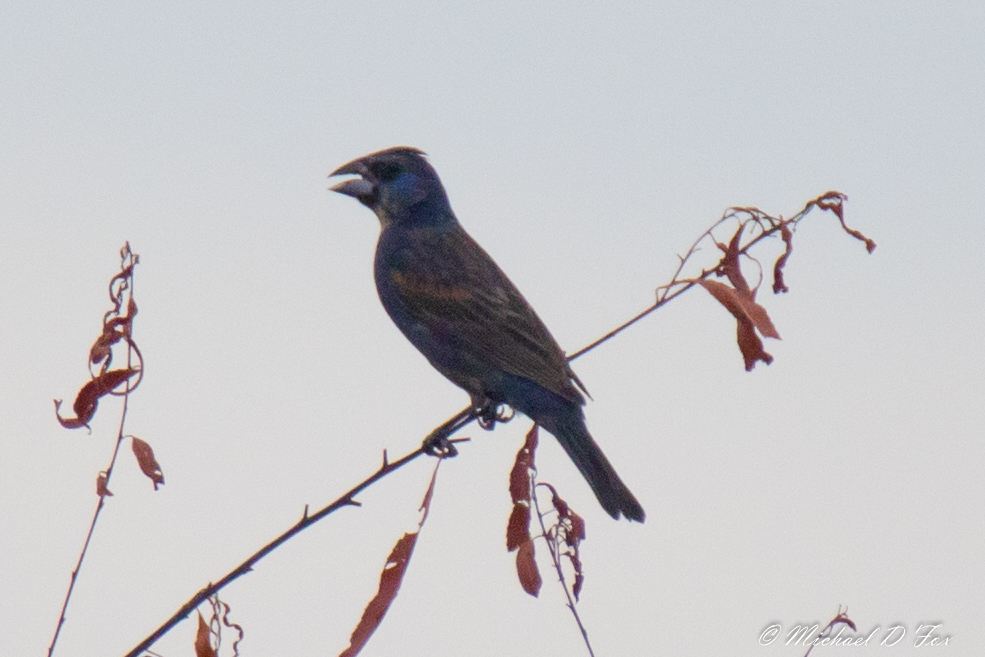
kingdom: Animalia
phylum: Chordata
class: Aves
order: Passeriformes
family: Cardinalidae
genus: Passerina
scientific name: Passerina caerulea
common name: Blue grosbeak
